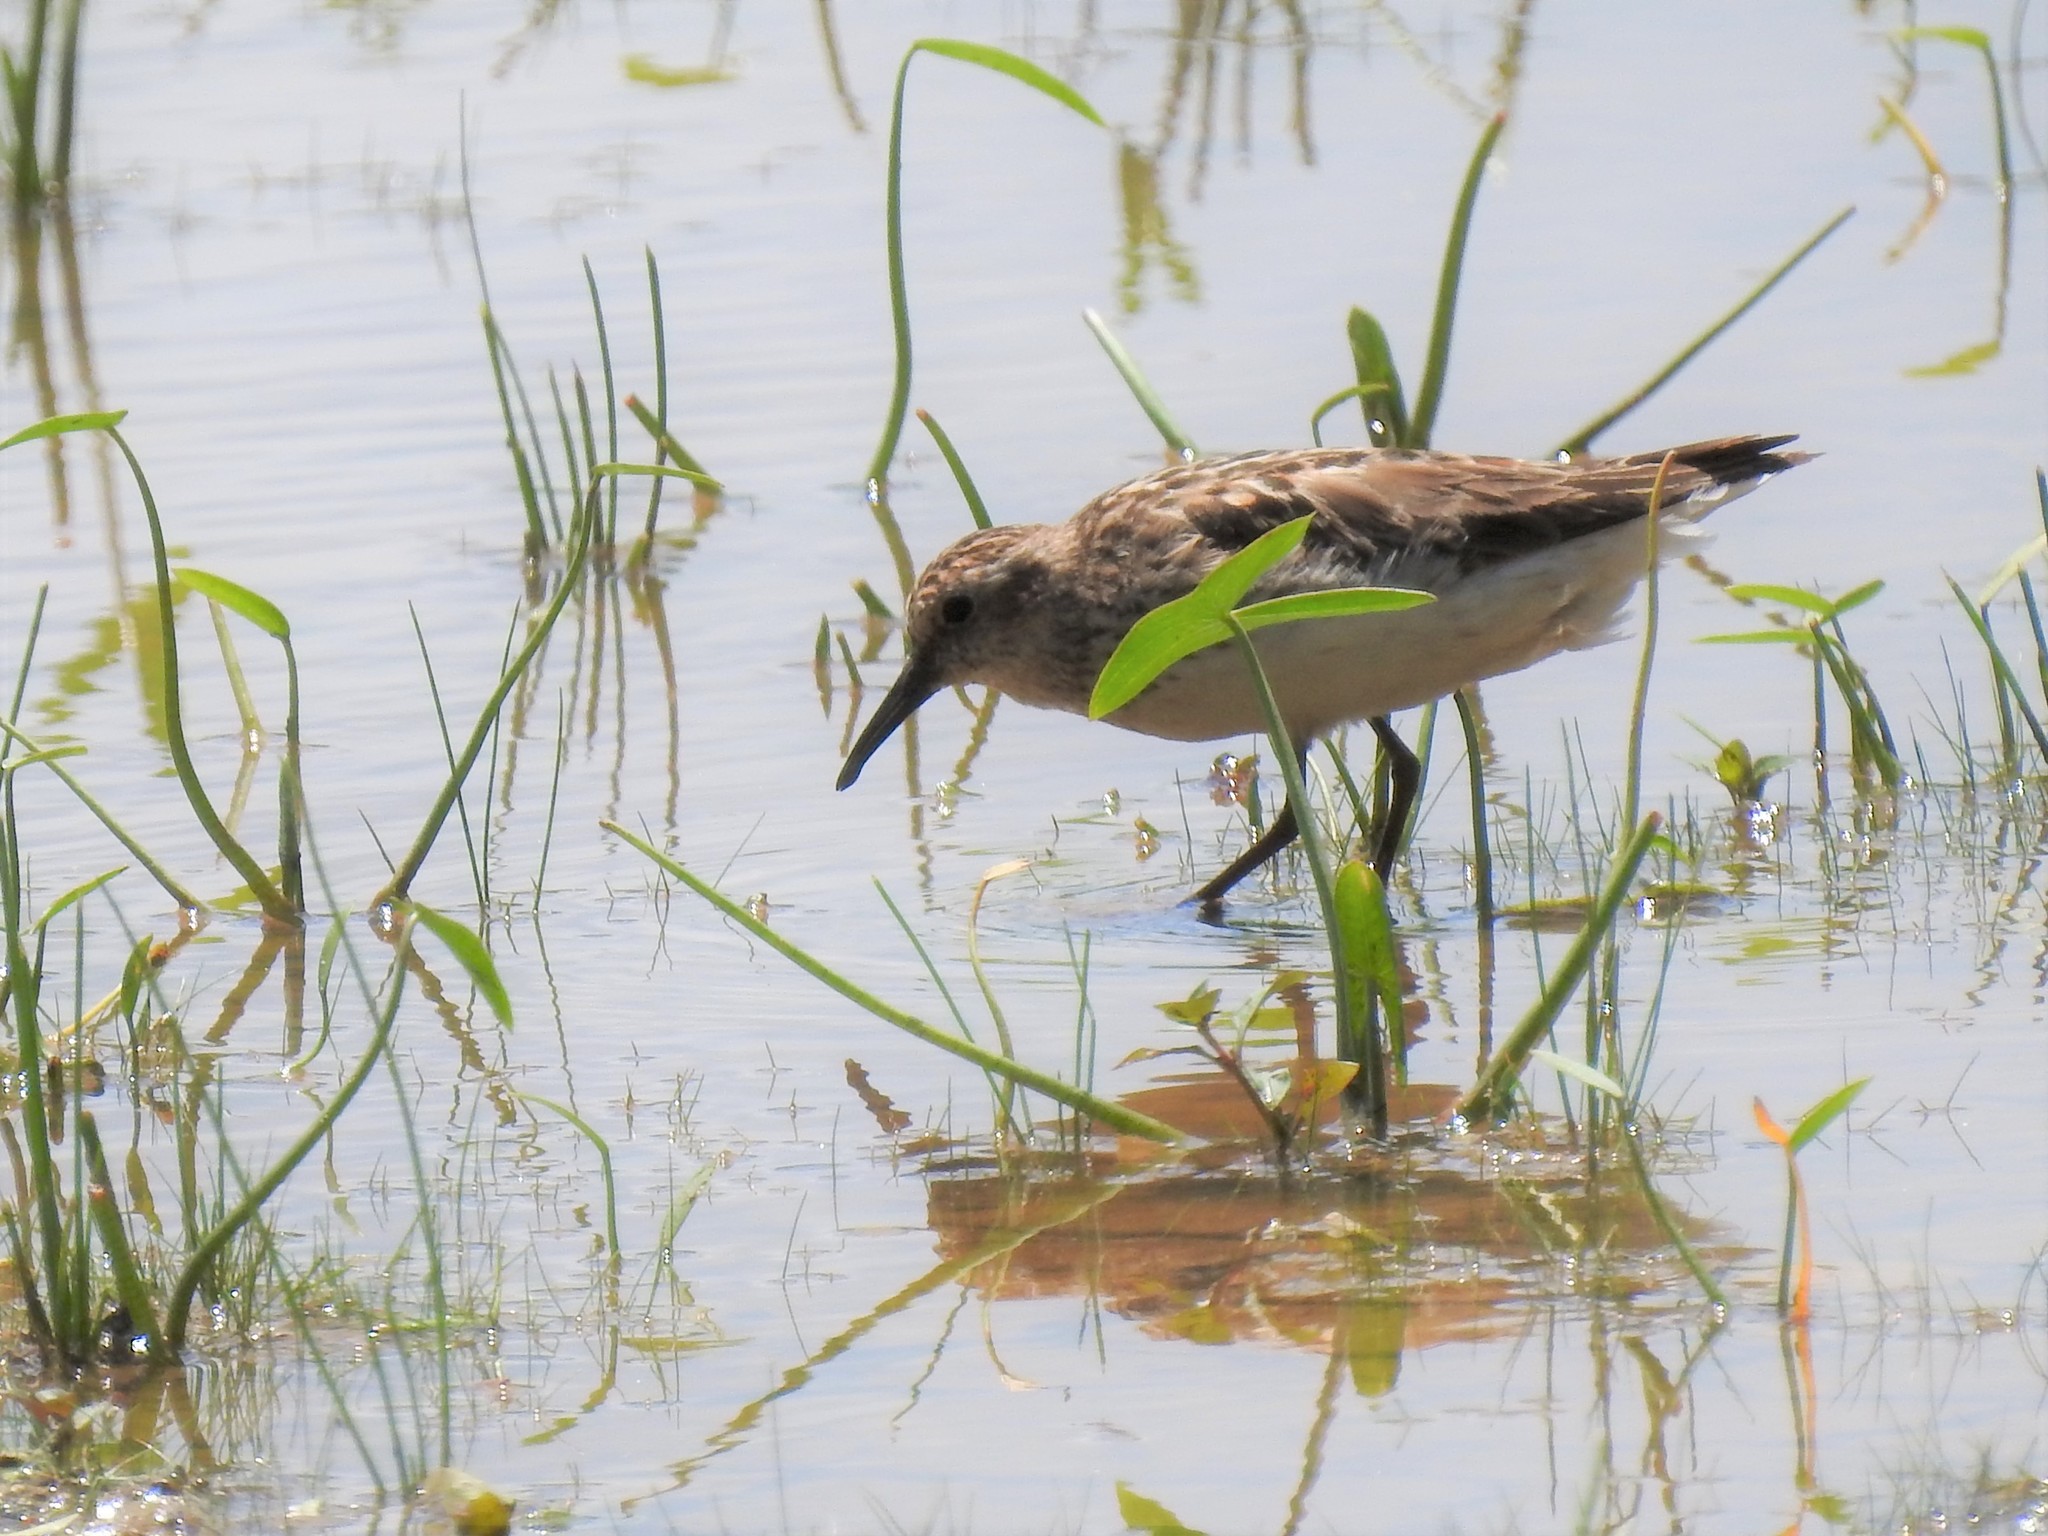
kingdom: Animalia
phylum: Chordata
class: Aves
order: Charadriiformes
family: Scolopacidae
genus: Calidris
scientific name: Calidris minutilla
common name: Least sandpiper
